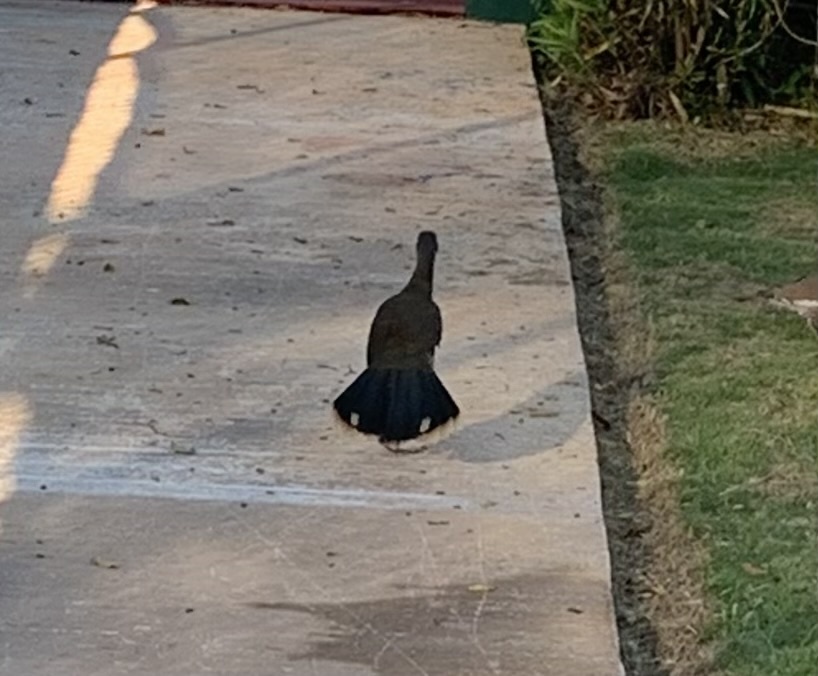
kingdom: Animalia
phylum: Chordata
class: Aves
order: Galliformes
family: Cracidae
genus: Ortalis
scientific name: Ortalis vetula
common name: Plain chachalaca
